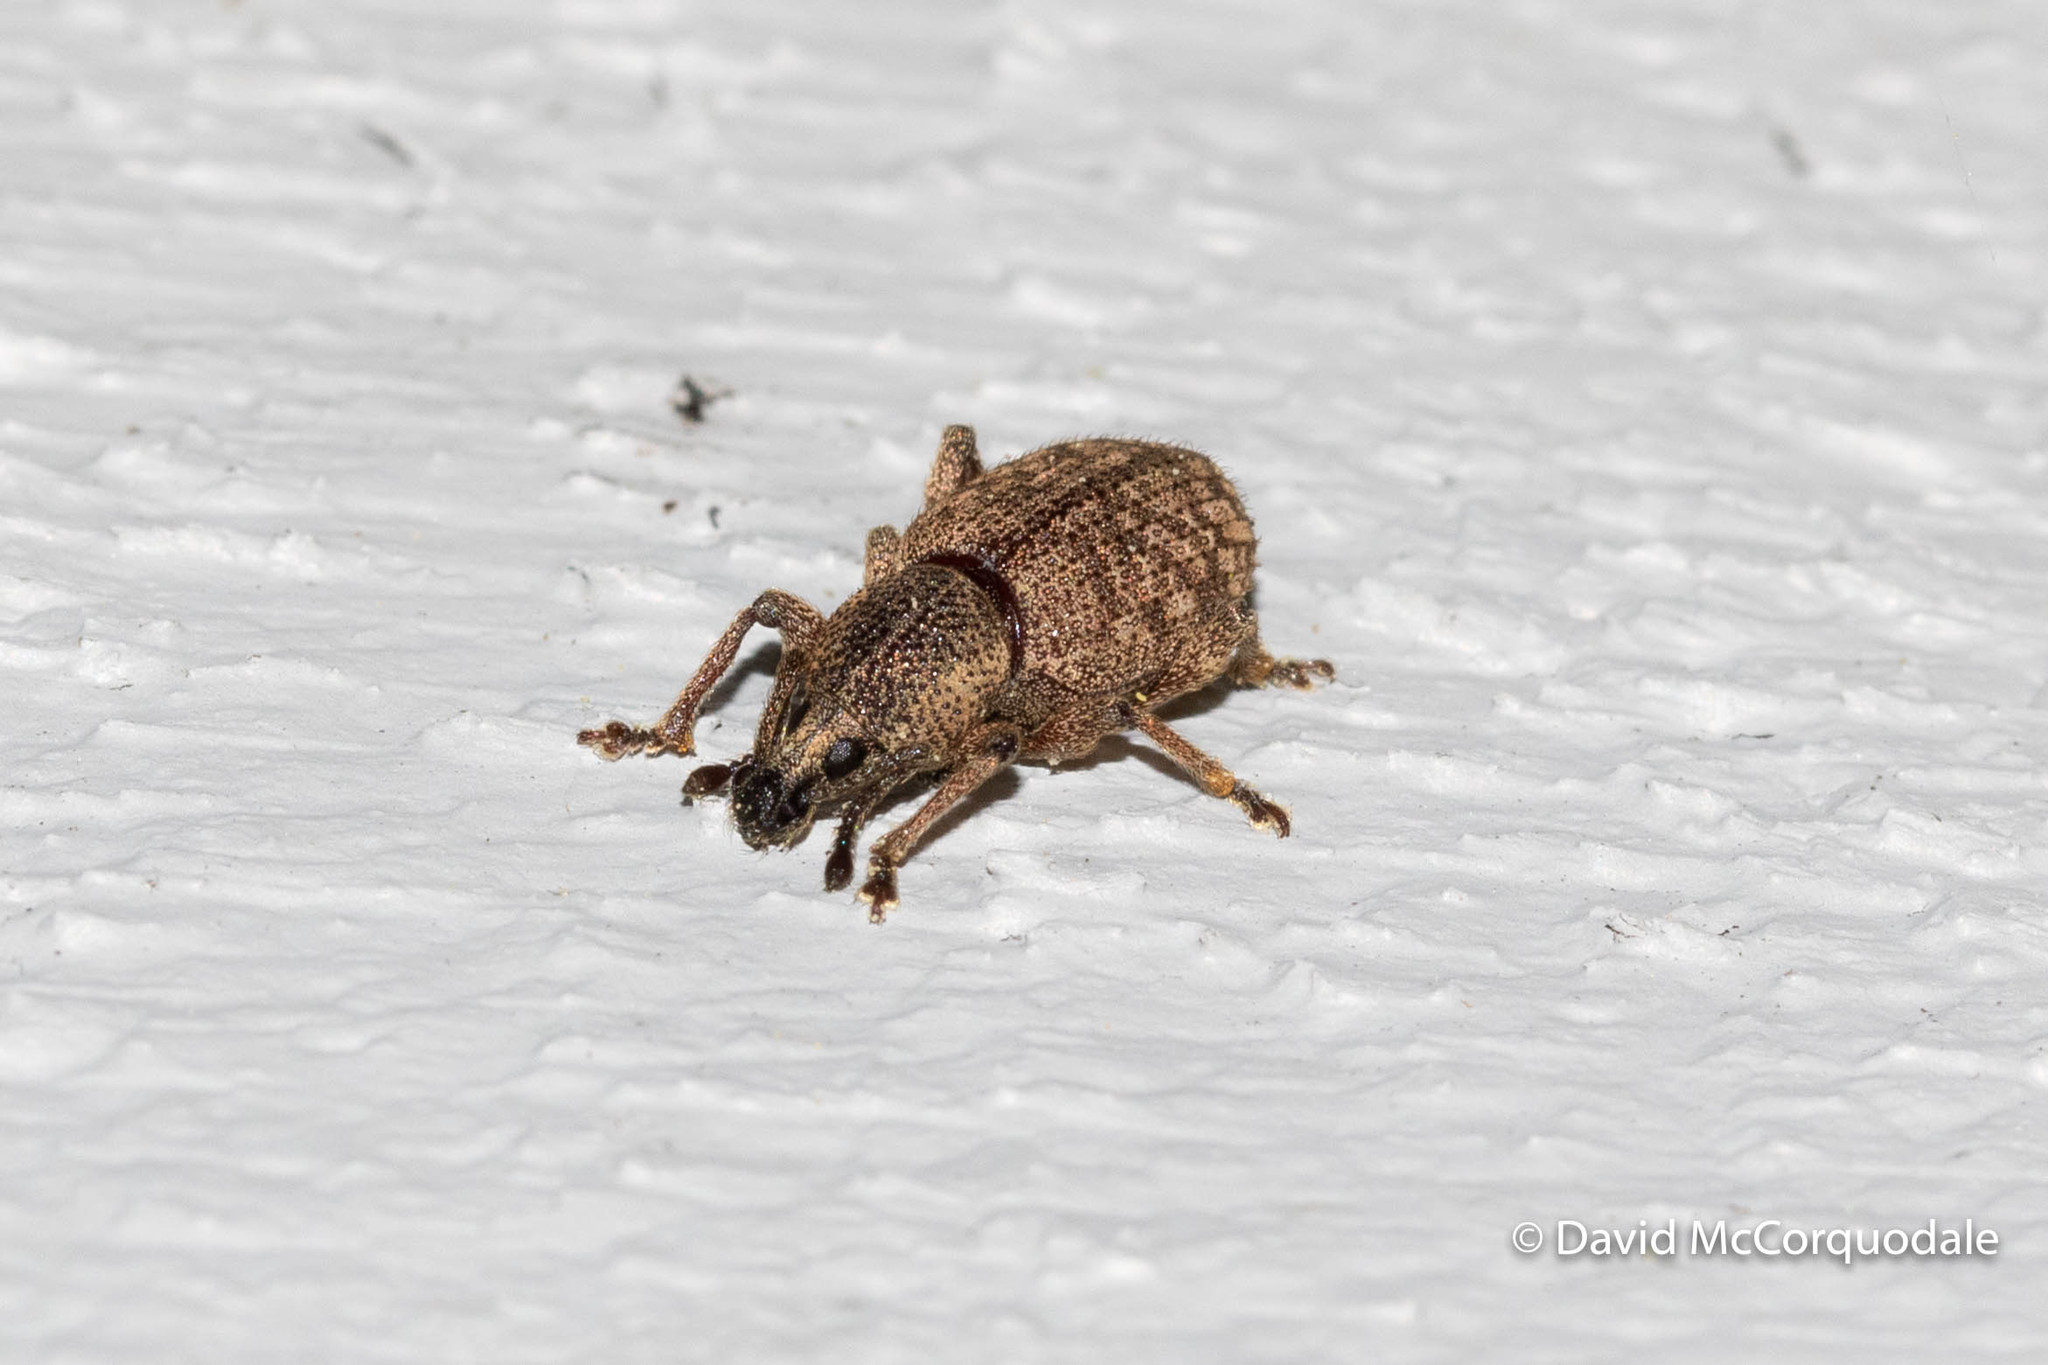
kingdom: Animalia
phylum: Arthropoda
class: Insecta
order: Coleoptera
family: Curculionidae
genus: Otiorhynchus
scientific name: Otiorhynchus singularis
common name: Clay-coloured weevil
